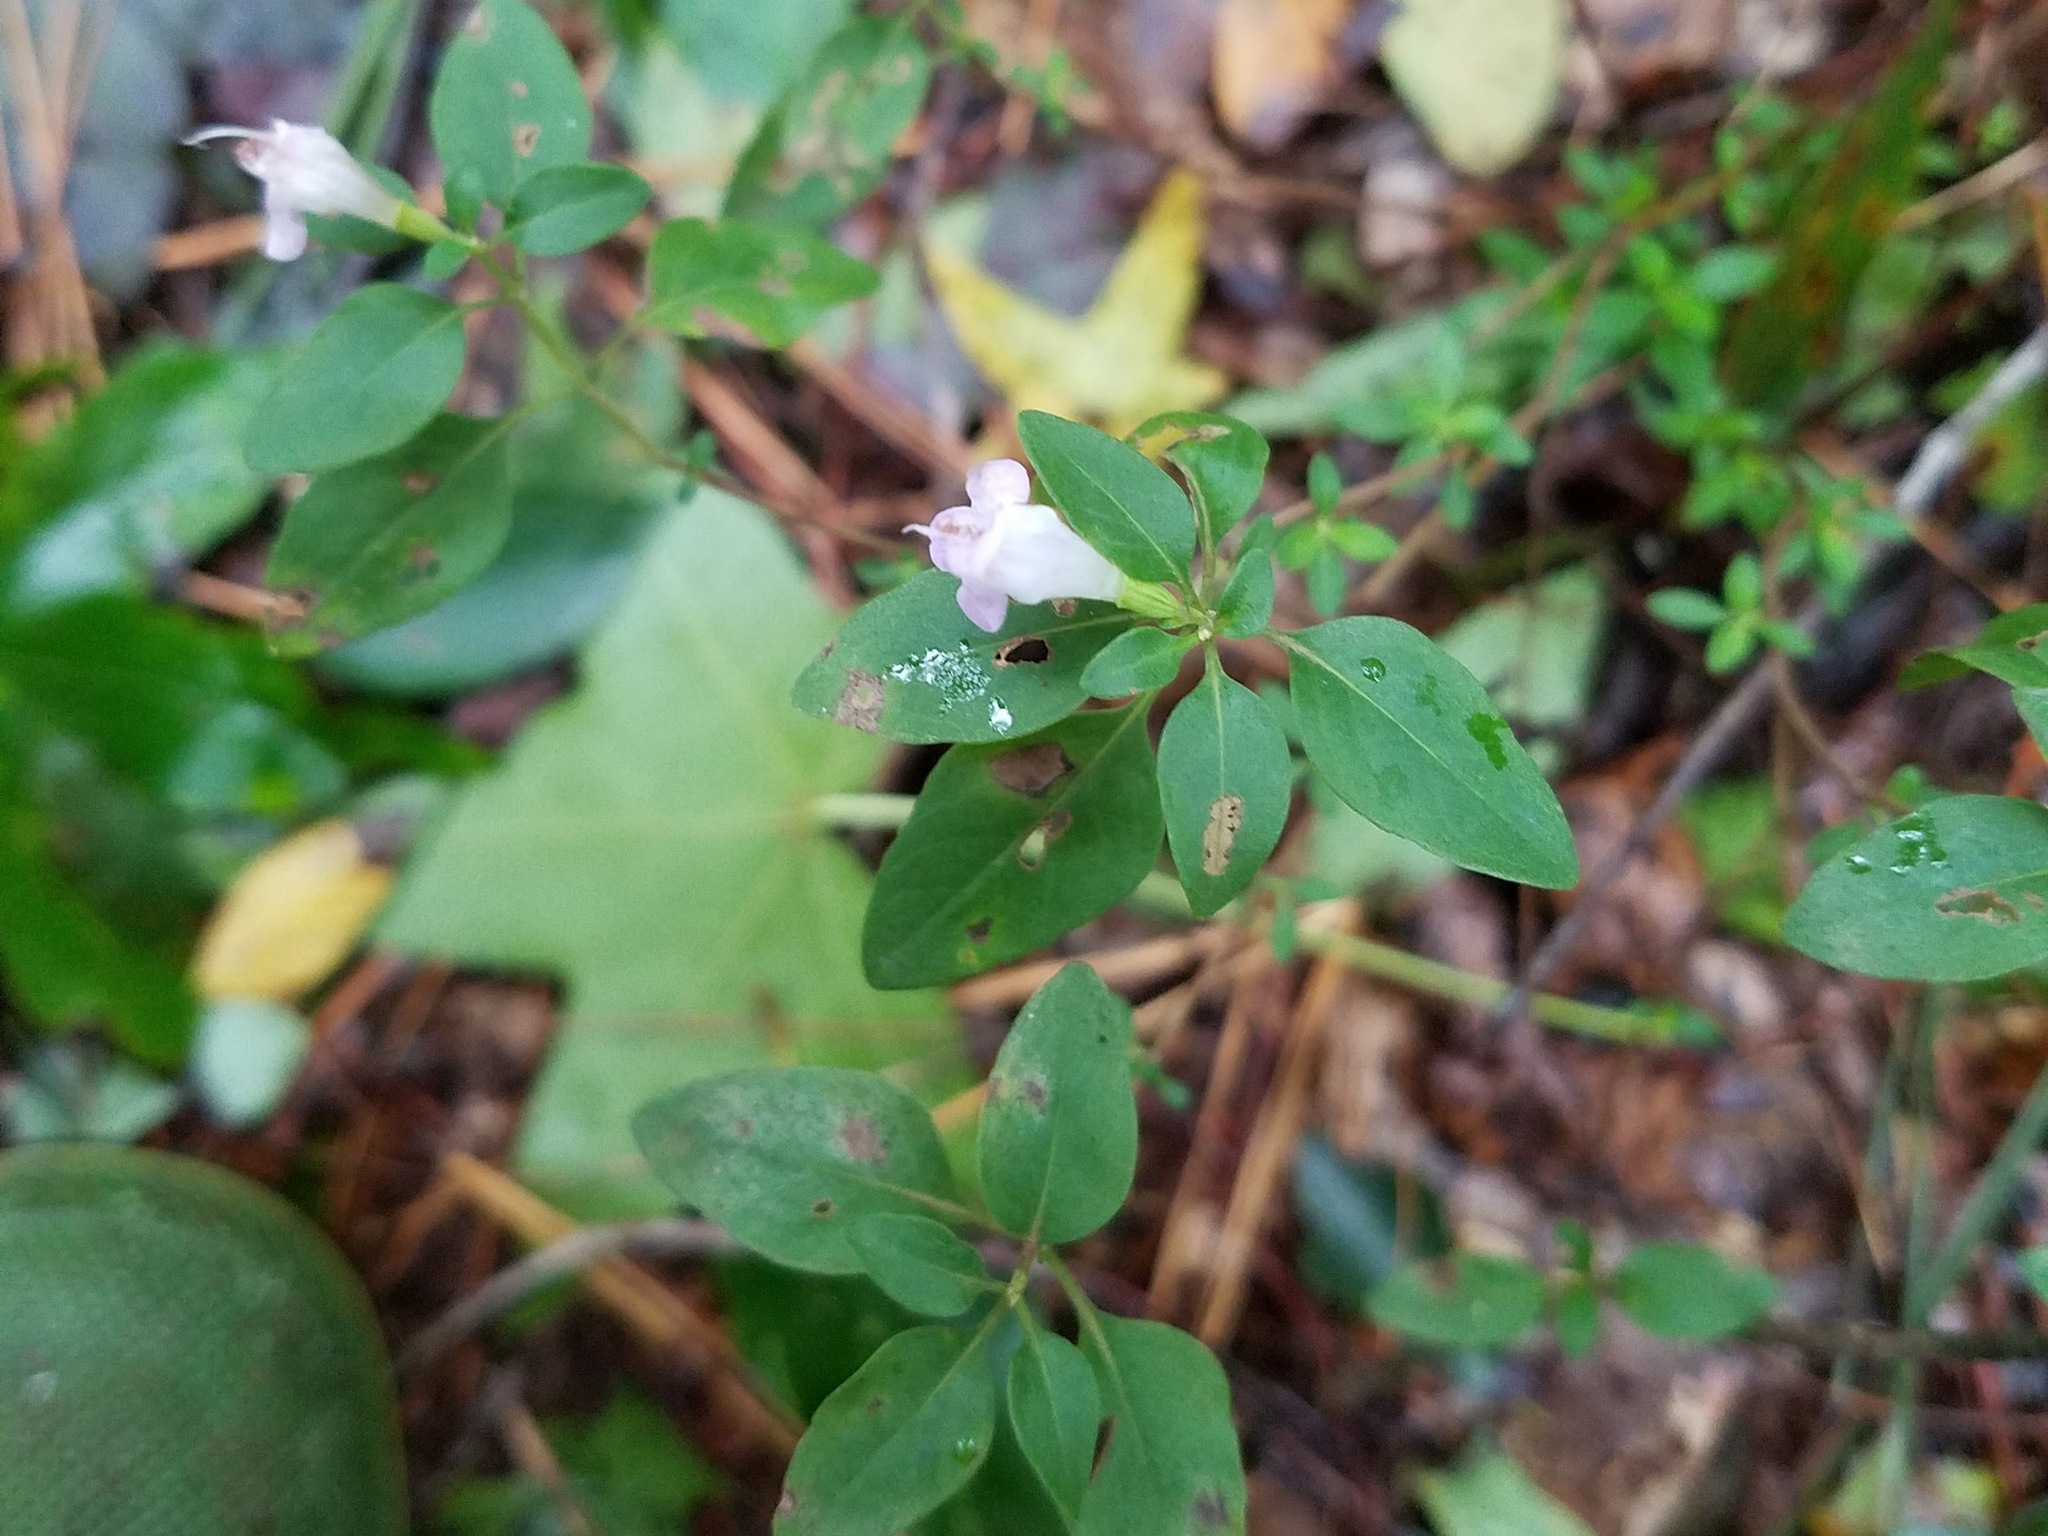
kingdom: Plantae
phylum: Tracheophyta
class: Magnoliopsida
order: Lamiales
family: Lamiaceae
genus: Clinopodium
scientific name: Clinopodium carolinianum
